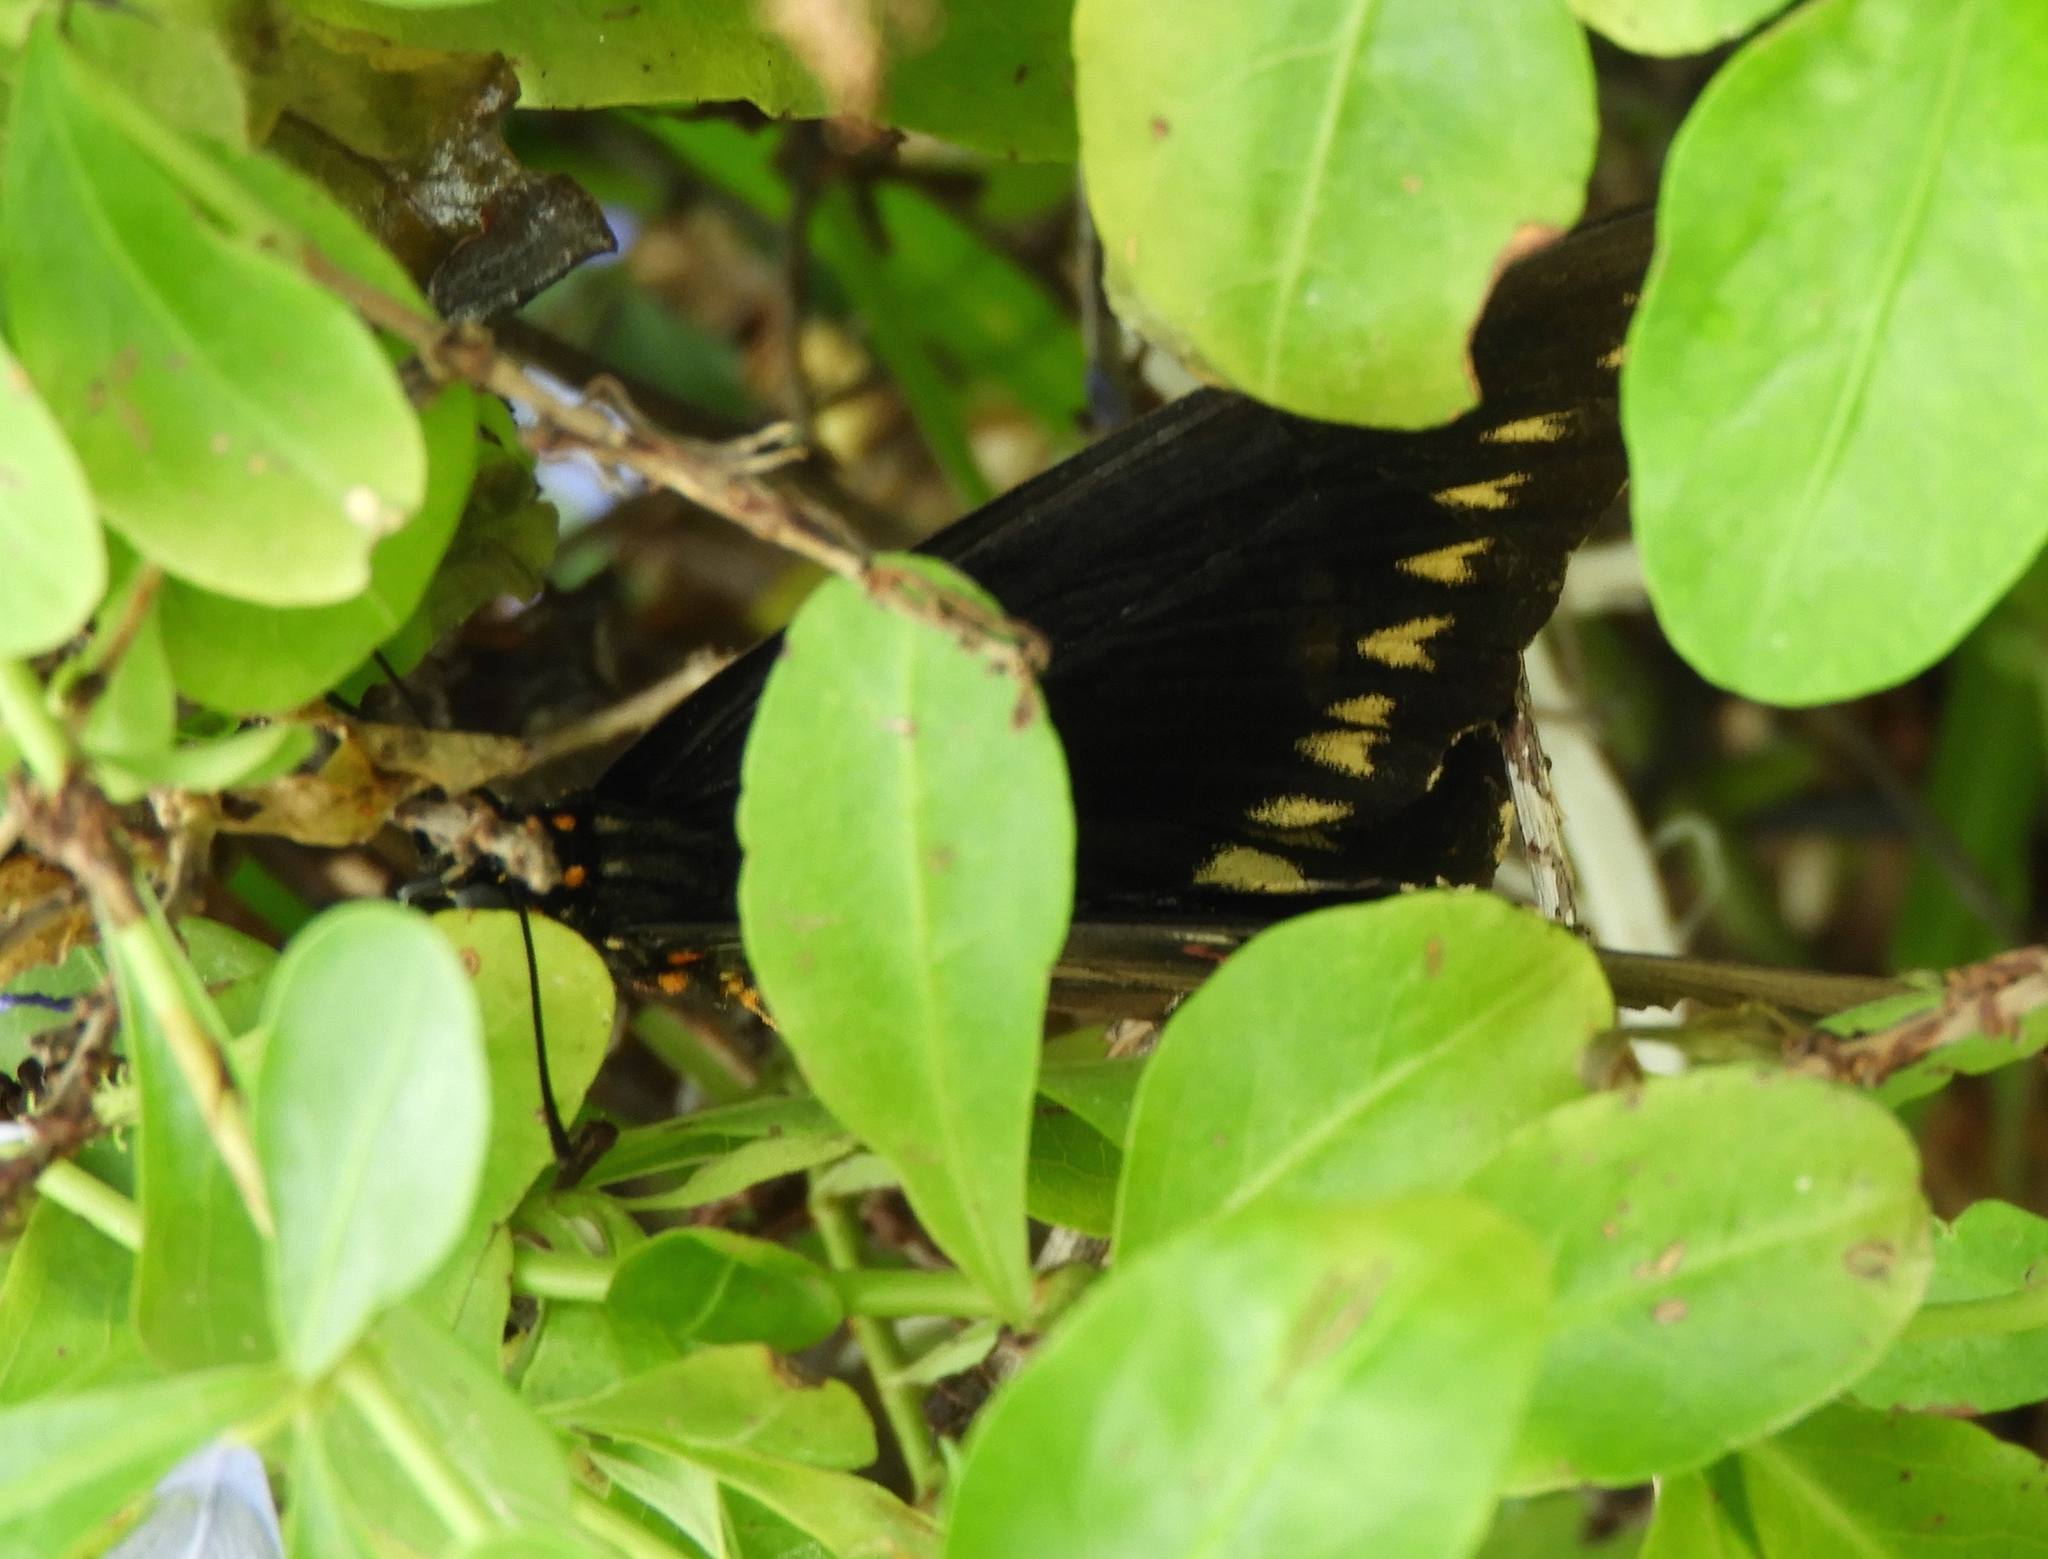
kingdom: Animalia
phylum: Arthropoda
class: Insecta
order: Lepidoptera
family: Papilionidae
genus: Battus
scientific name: Battus polydamas
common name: Polydamas swallowtail
